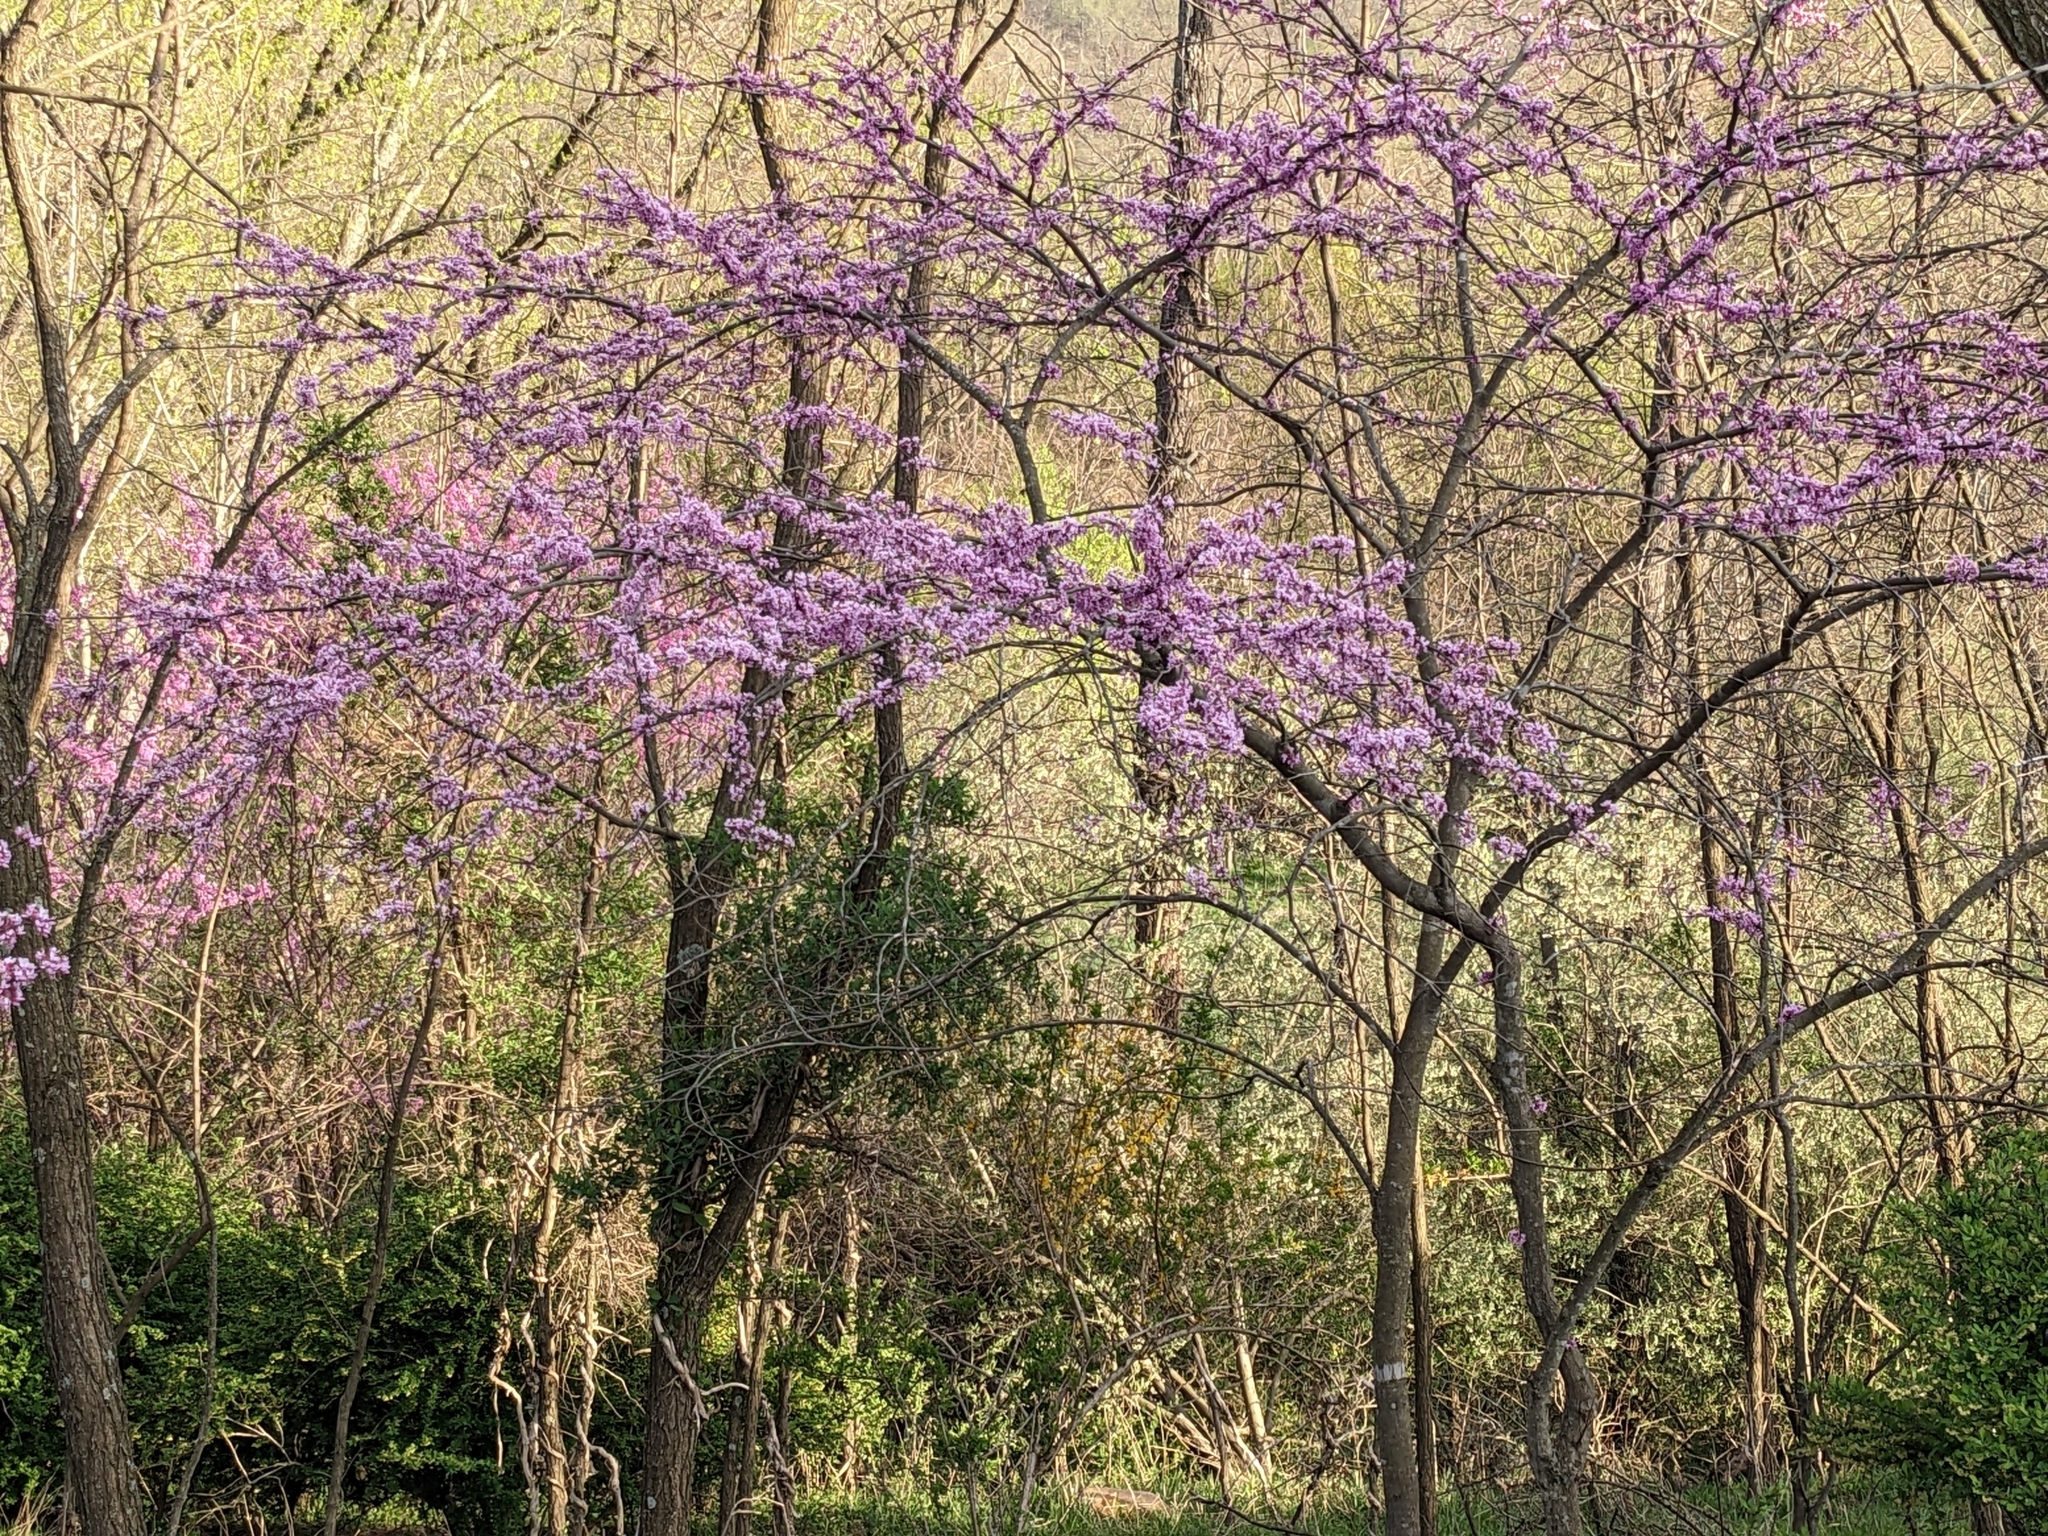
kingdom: Plantae
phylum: Tracheophyta
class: Magnoliopsida
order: Fabales
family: Fabaceae
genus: Cercis
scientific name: Cercis canadensis
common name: Eastern redbud
